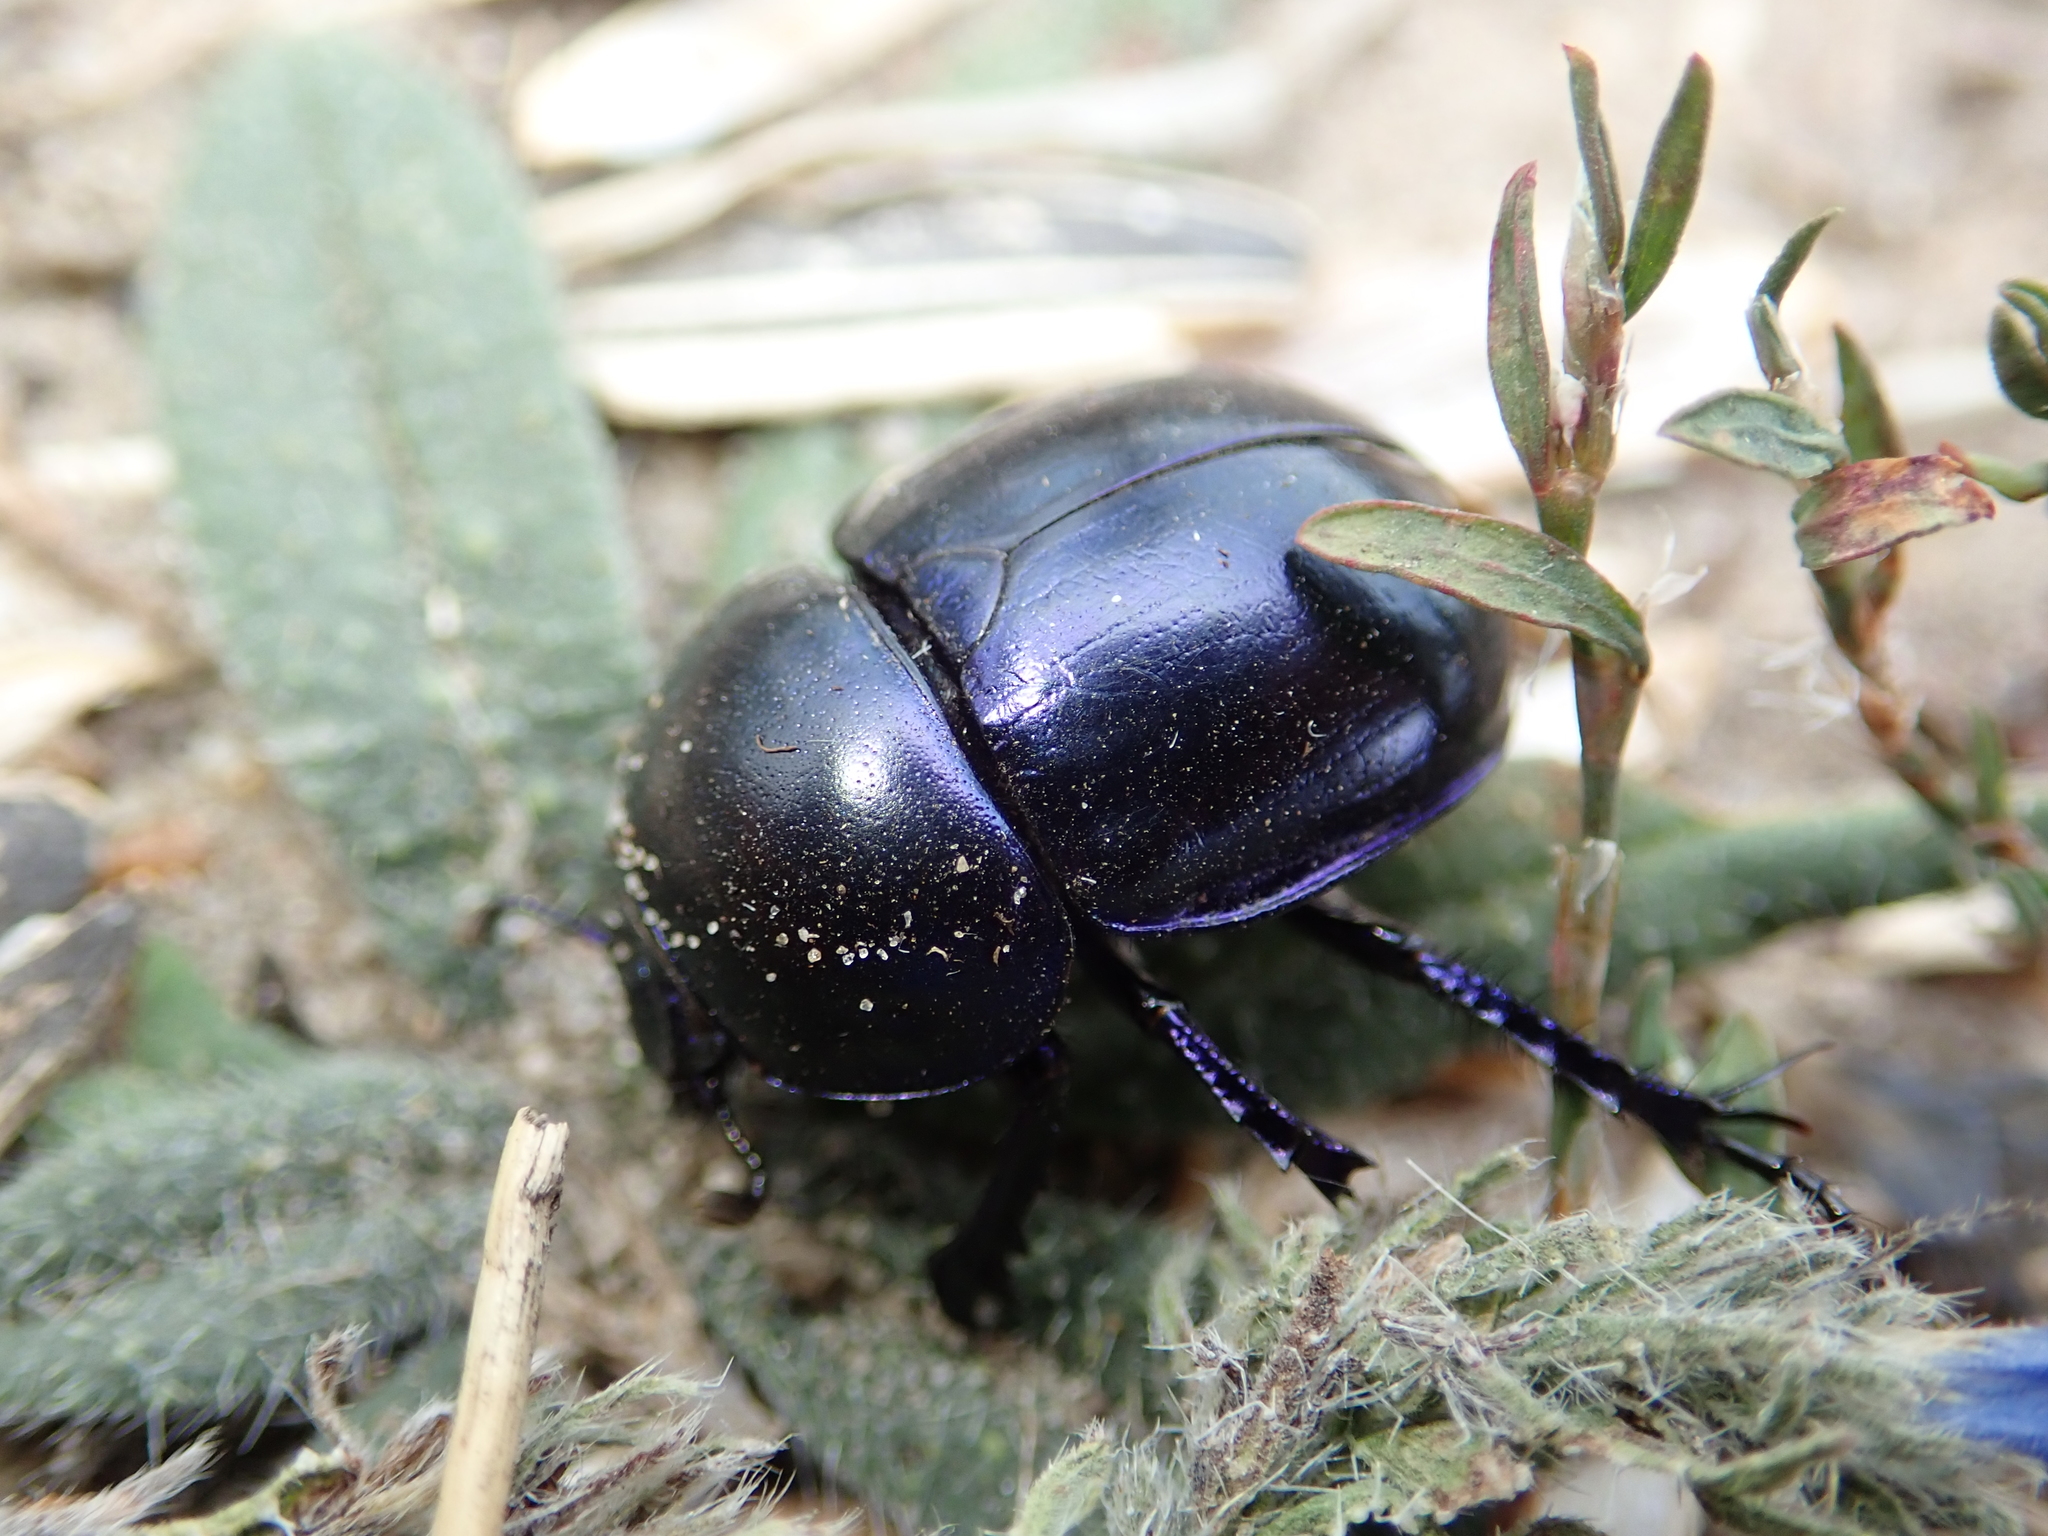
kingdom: Animalia
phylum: Arthropoda
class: Insecta
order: Coleoptera
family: Geotrupidae
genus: Trypocopris
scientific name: Trypocopris vernalis
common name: Spring dumbledor
